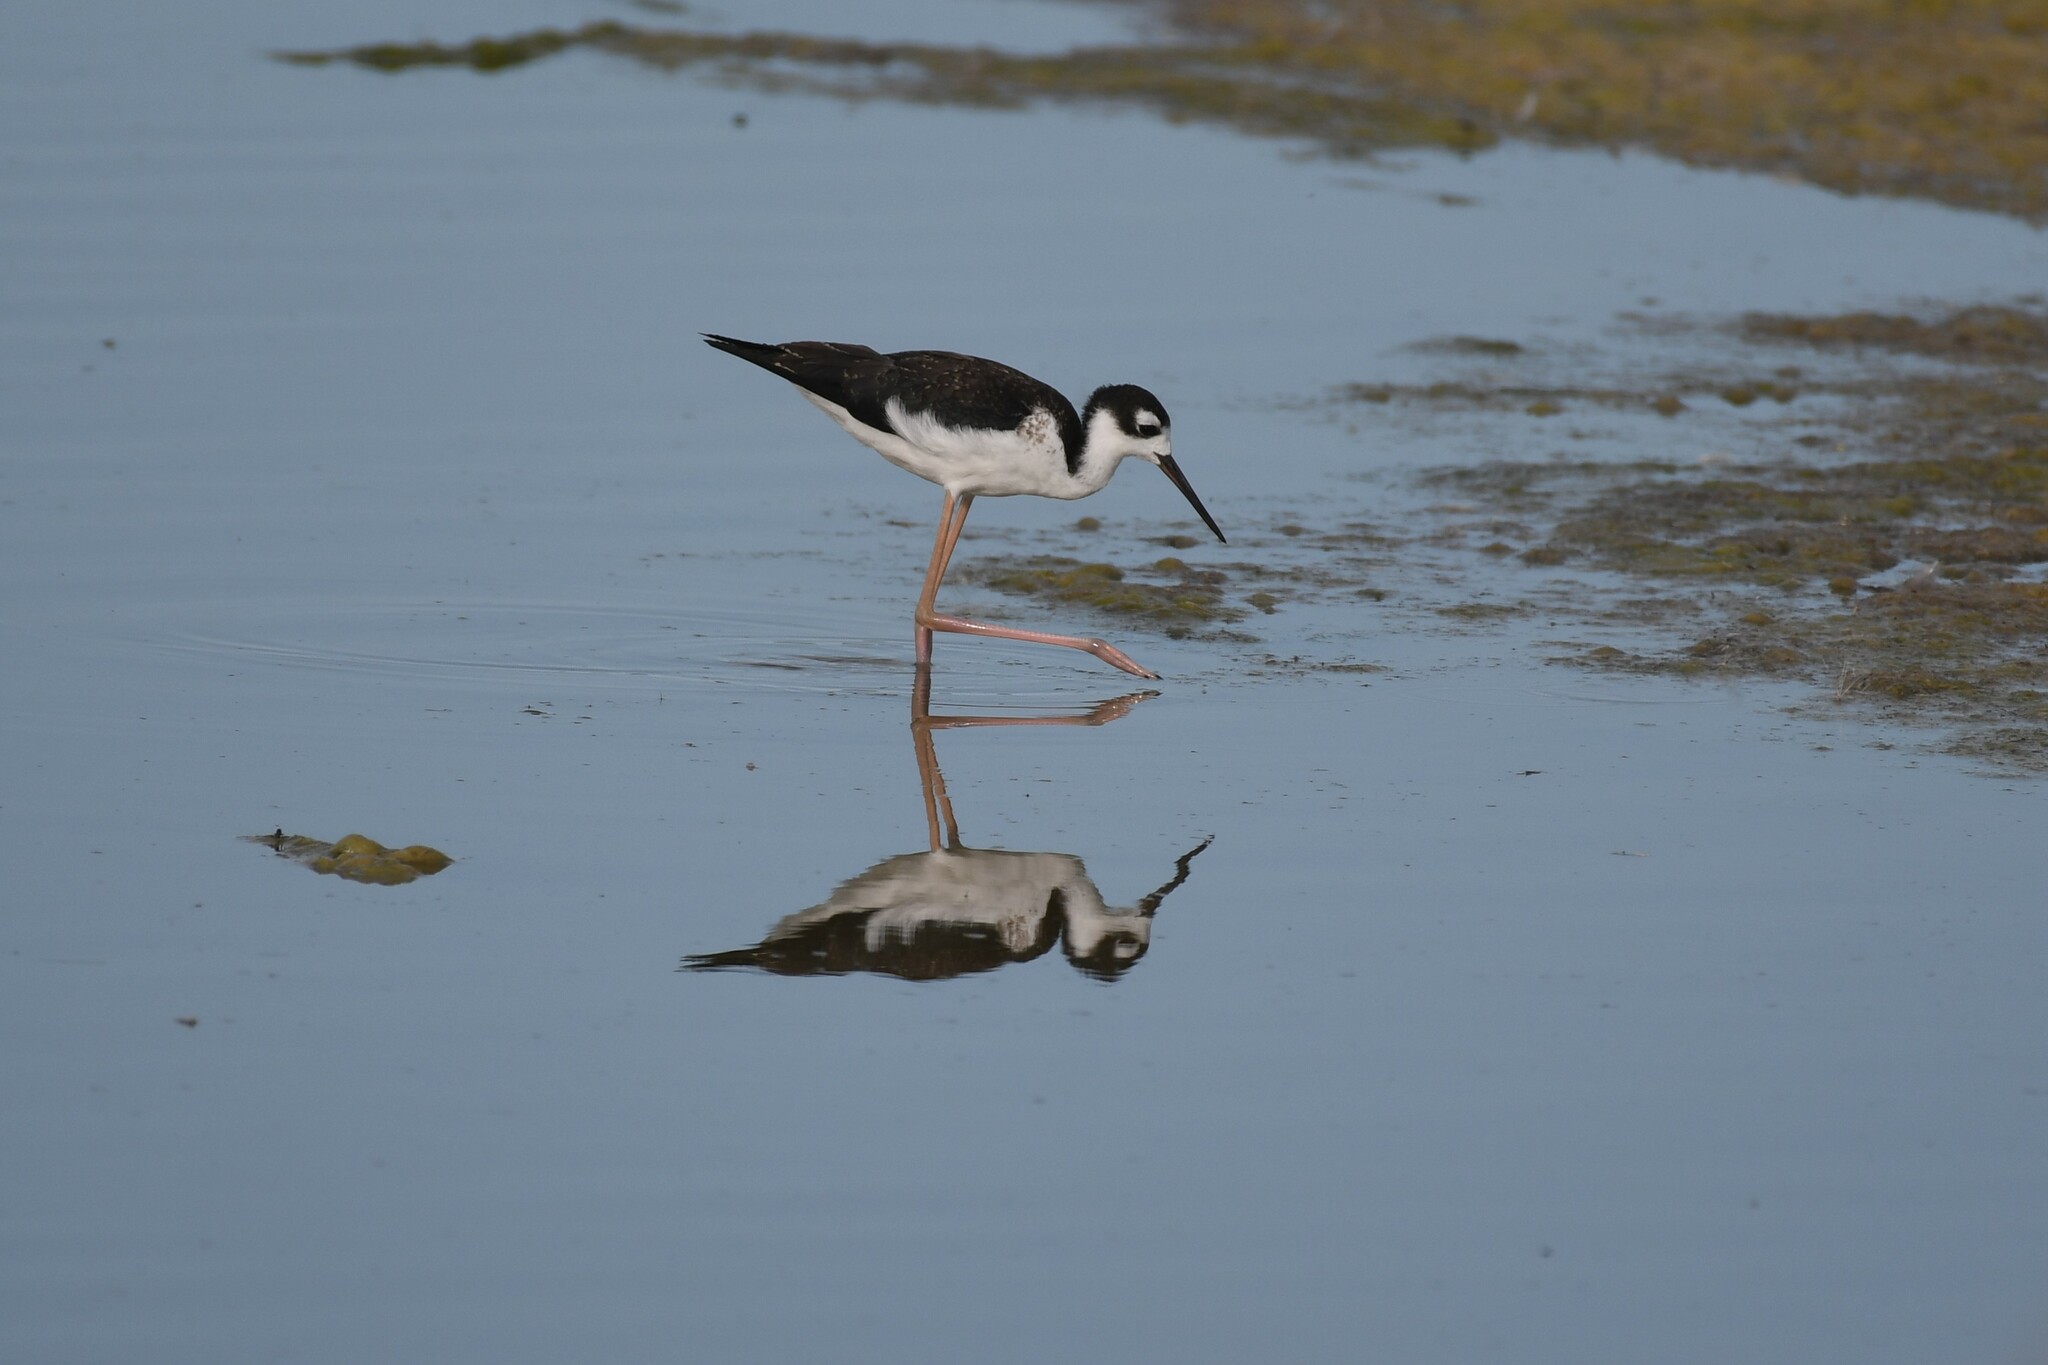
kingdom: Animalia
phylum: Chordata
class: Aves
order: Charadriiformes
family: Recurvirostridae
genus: Himantopus
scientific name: Himantopus mexicanus
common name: Black-necked stilt
